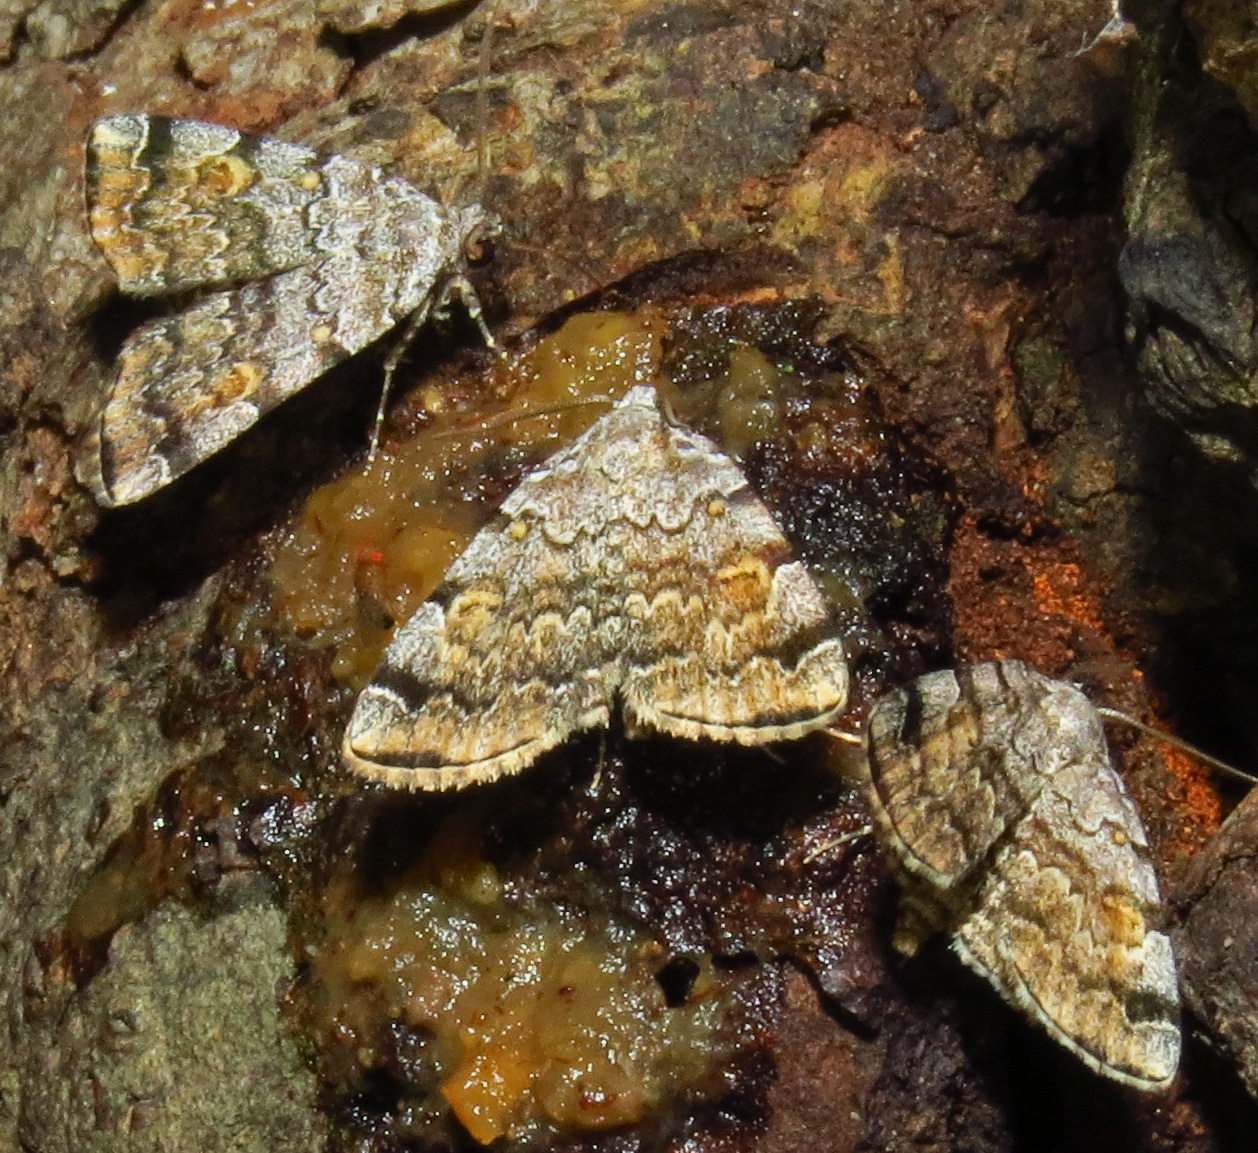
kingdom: Animalia
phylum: Arthropoda
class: Insecta
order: Lepidoptera
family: Erebidae
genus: Idia
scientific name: Idia americalis
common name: American idia moth
